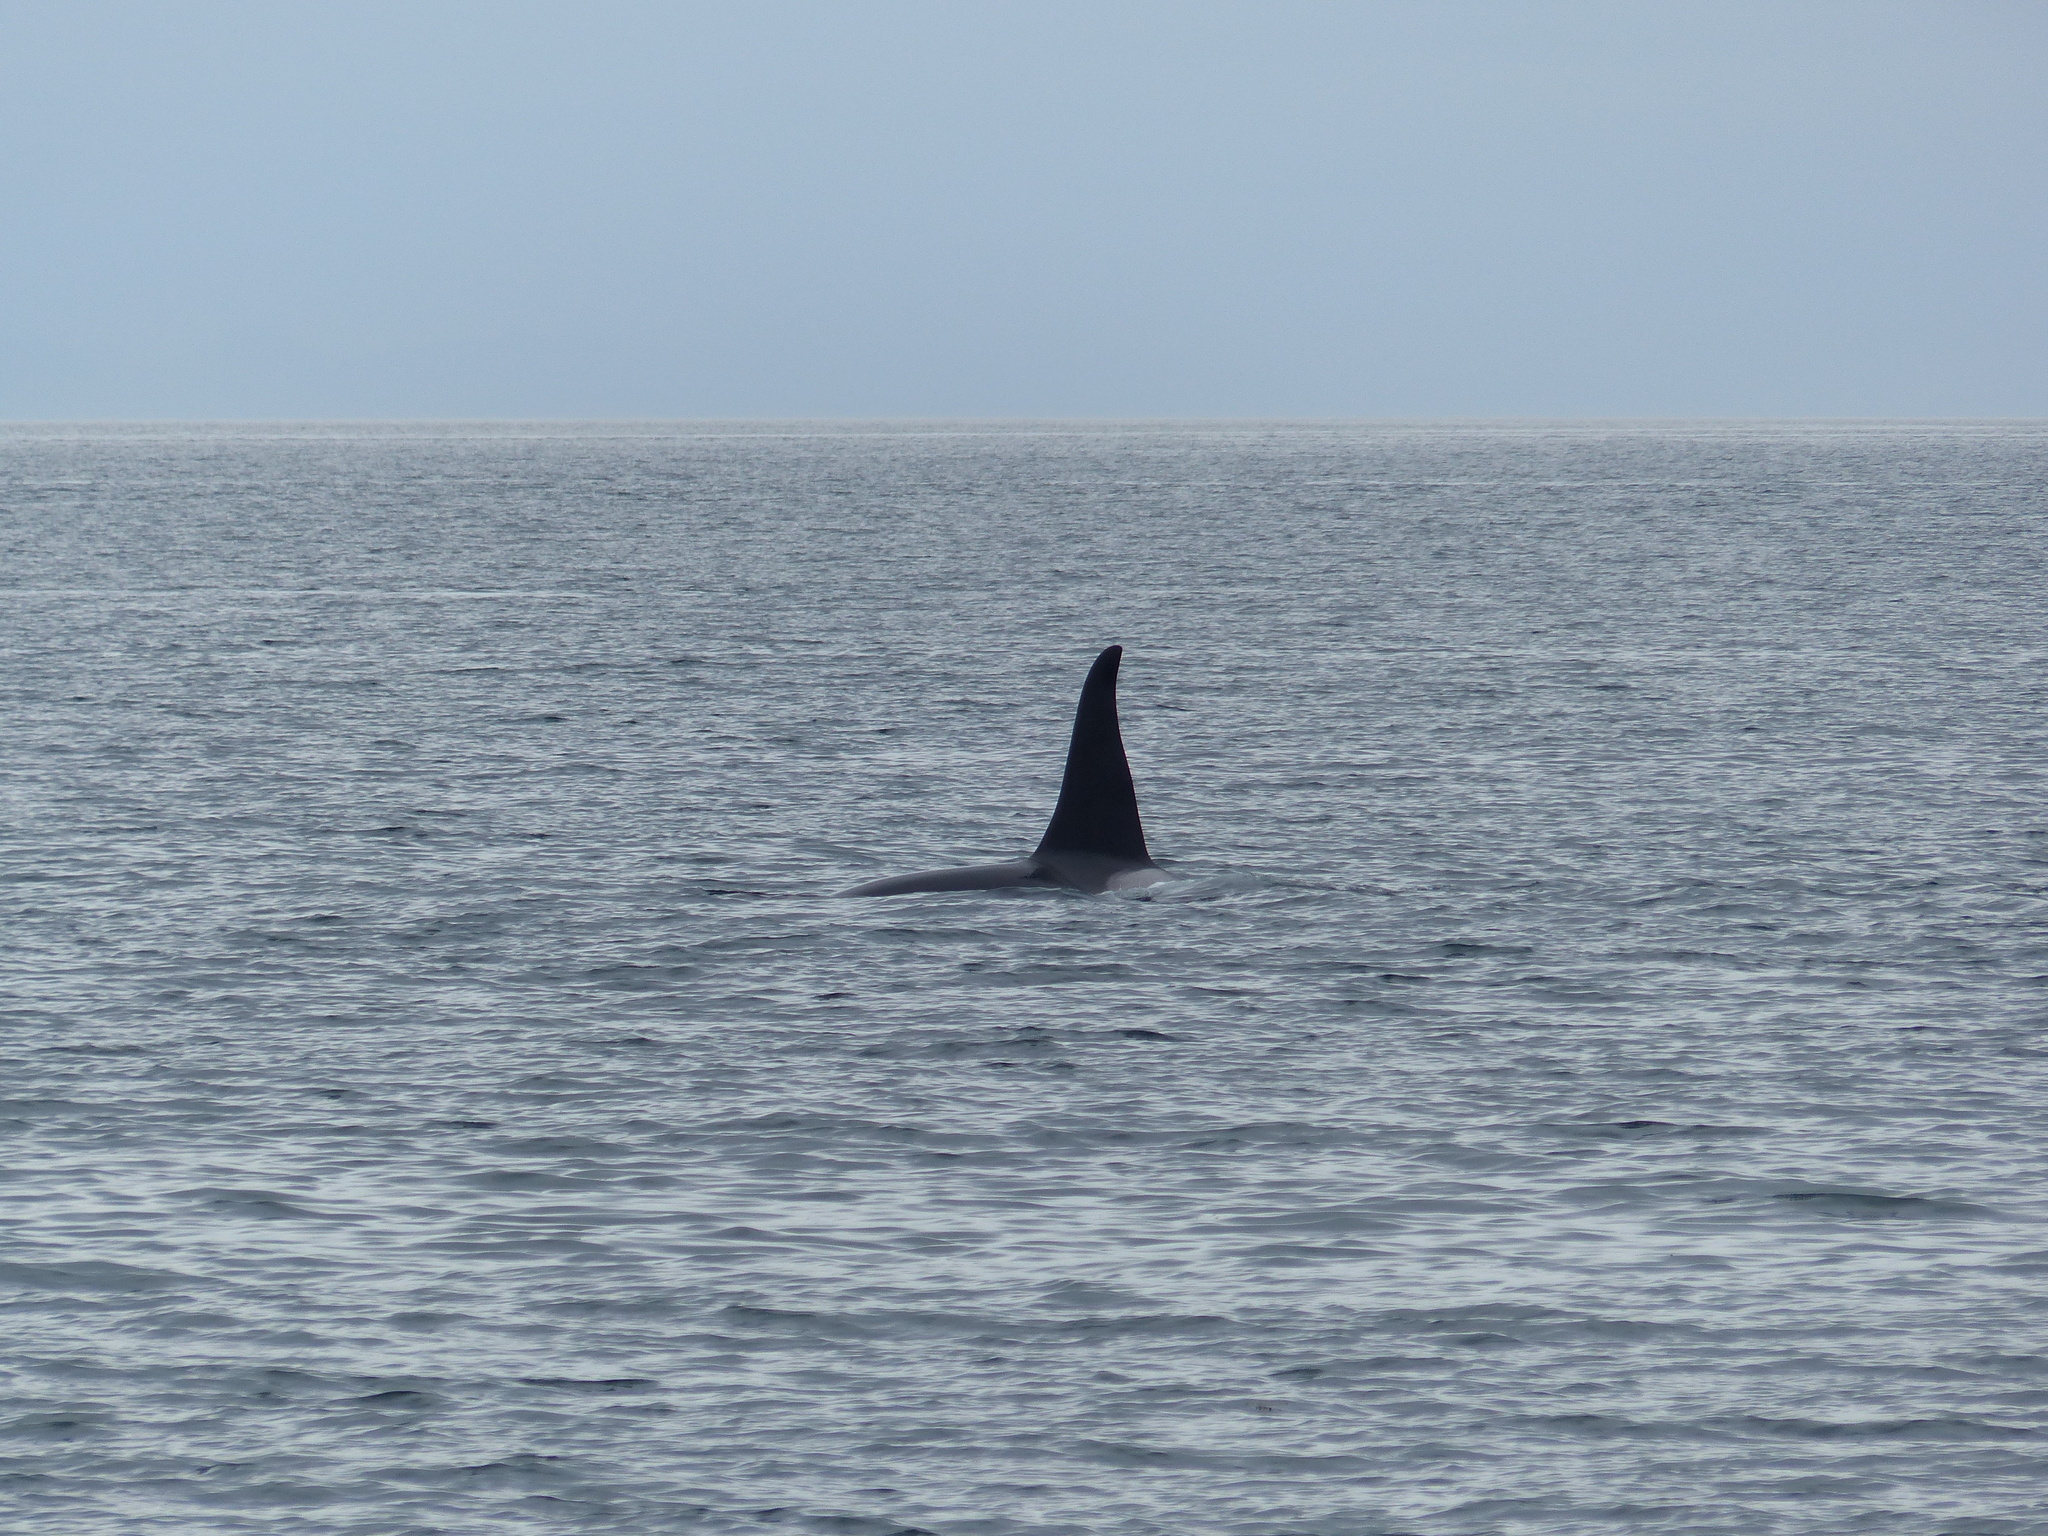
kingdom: Animalia
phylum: Chordata
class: Mammalia
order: Cetacea
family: Delphinidae
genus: Orcinus
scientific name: Orcinus orca
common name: Killer whale
